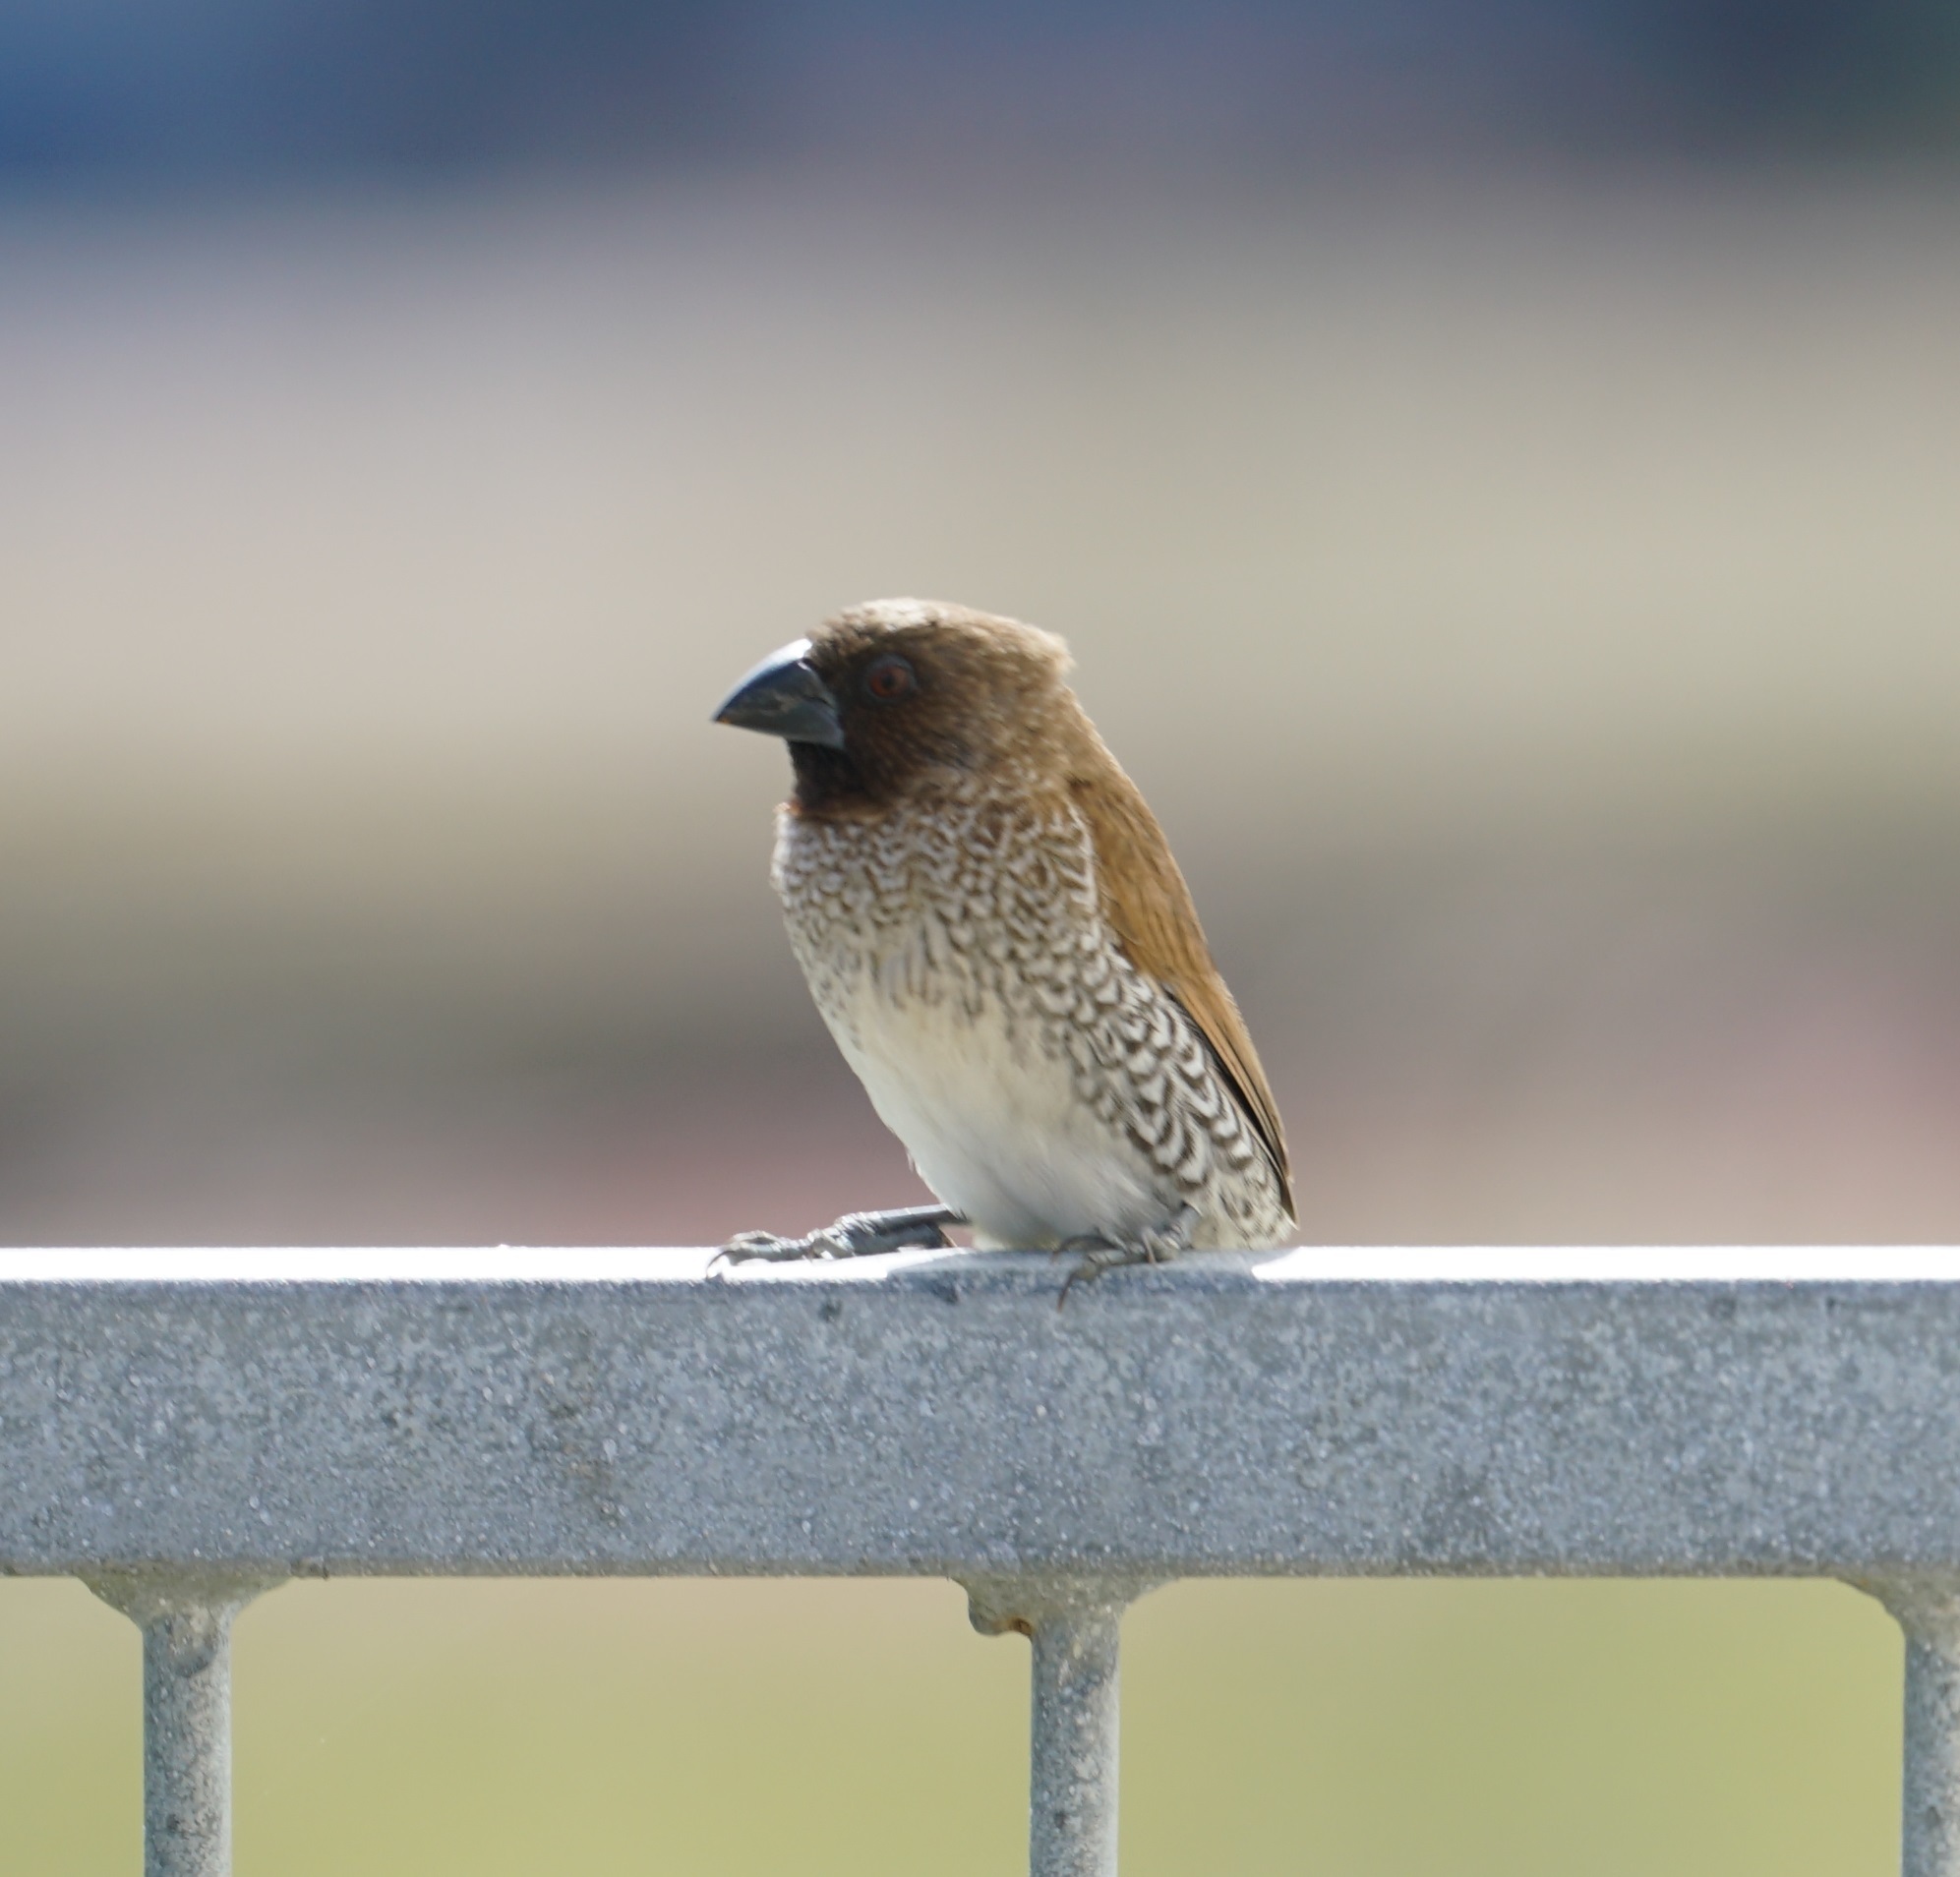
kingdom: Animalia
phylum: Chordata
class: Aves
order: Passeriformes
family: Estrildidae
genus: Lonchura
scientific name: Lonchura punctulata
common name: Scaly-breasted munia
